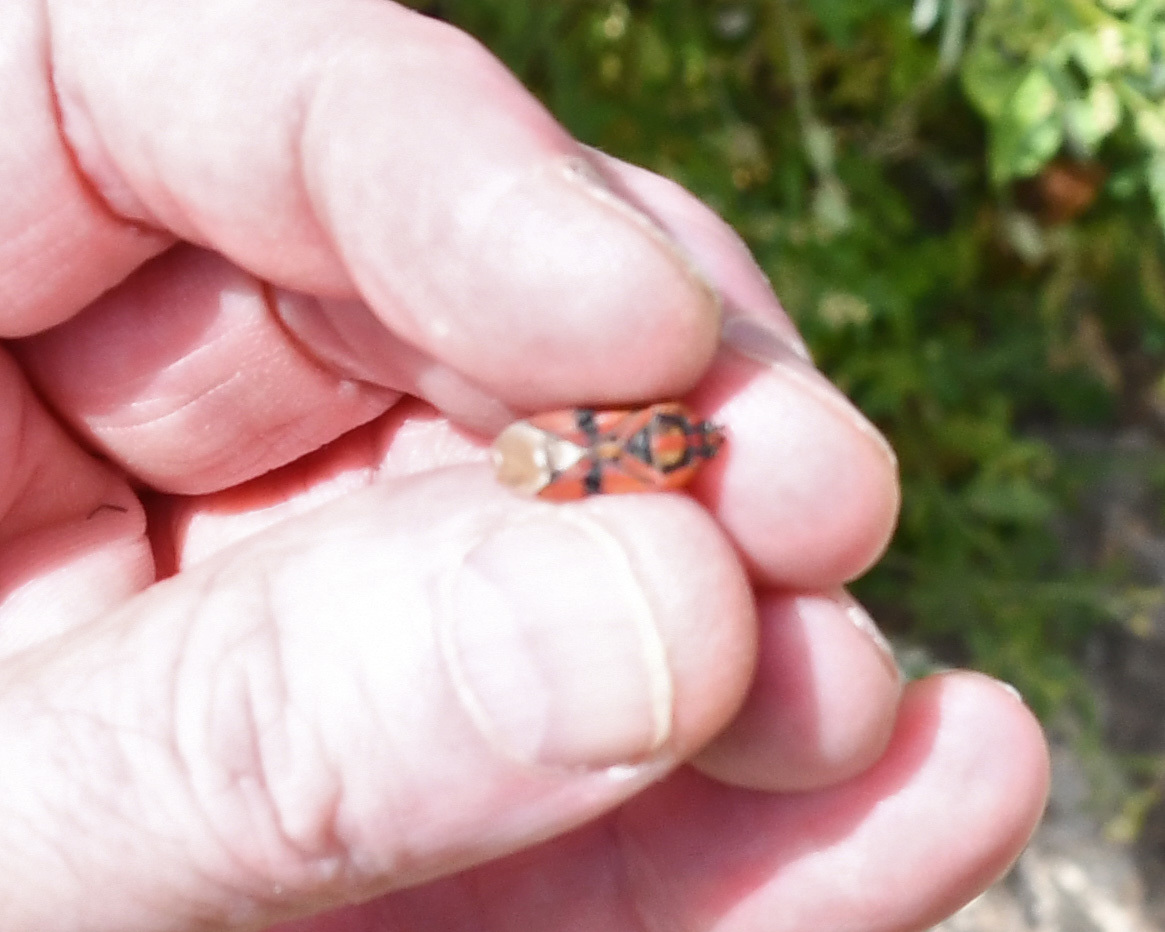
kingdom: Animalia
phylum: Arthropoda
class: Insecta
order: Hemiptera
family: Lygaeidae
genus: Spilostethus
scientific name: Spilostethus pandurus
